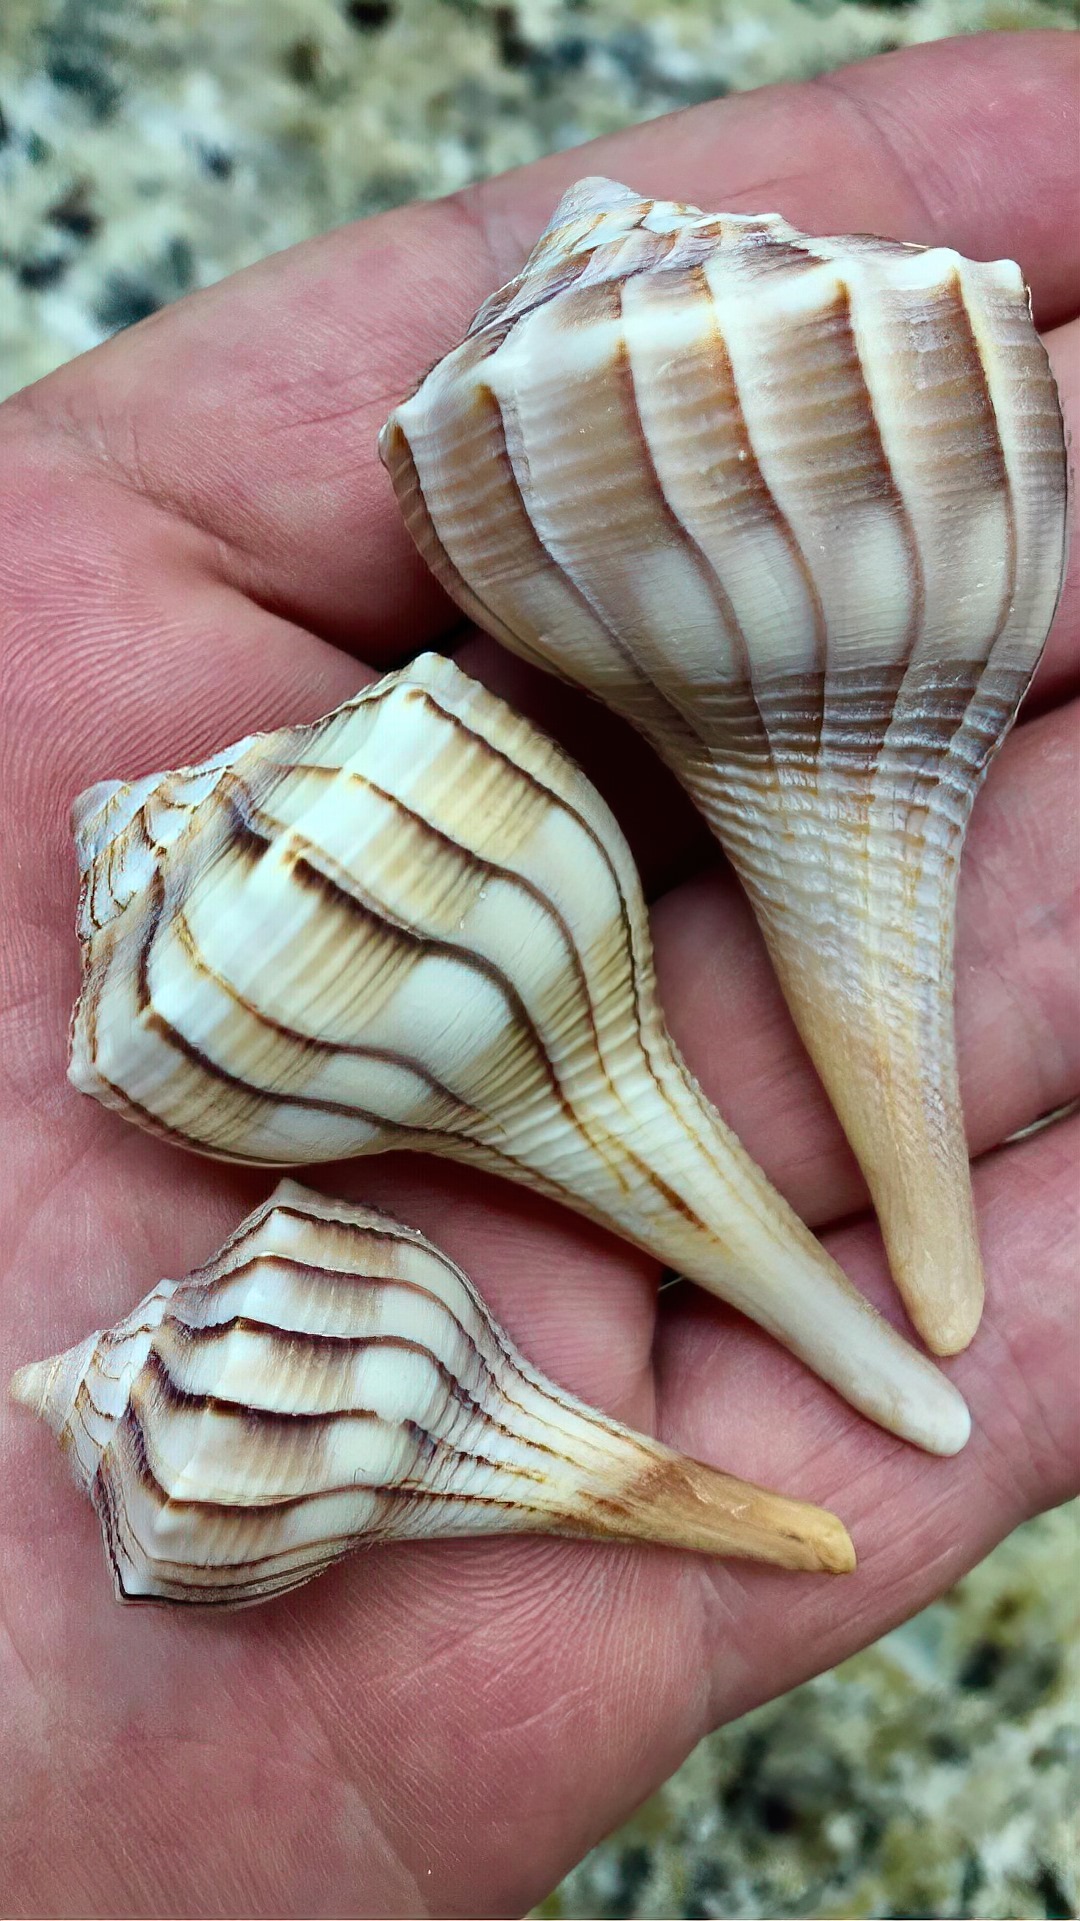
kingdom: Animalia
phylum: Mollusca
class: Gastropoda
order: Neogastropoda
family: Busyconidae
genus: Sinistrofulgur
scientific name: Sinistrofulgur sinistrum
